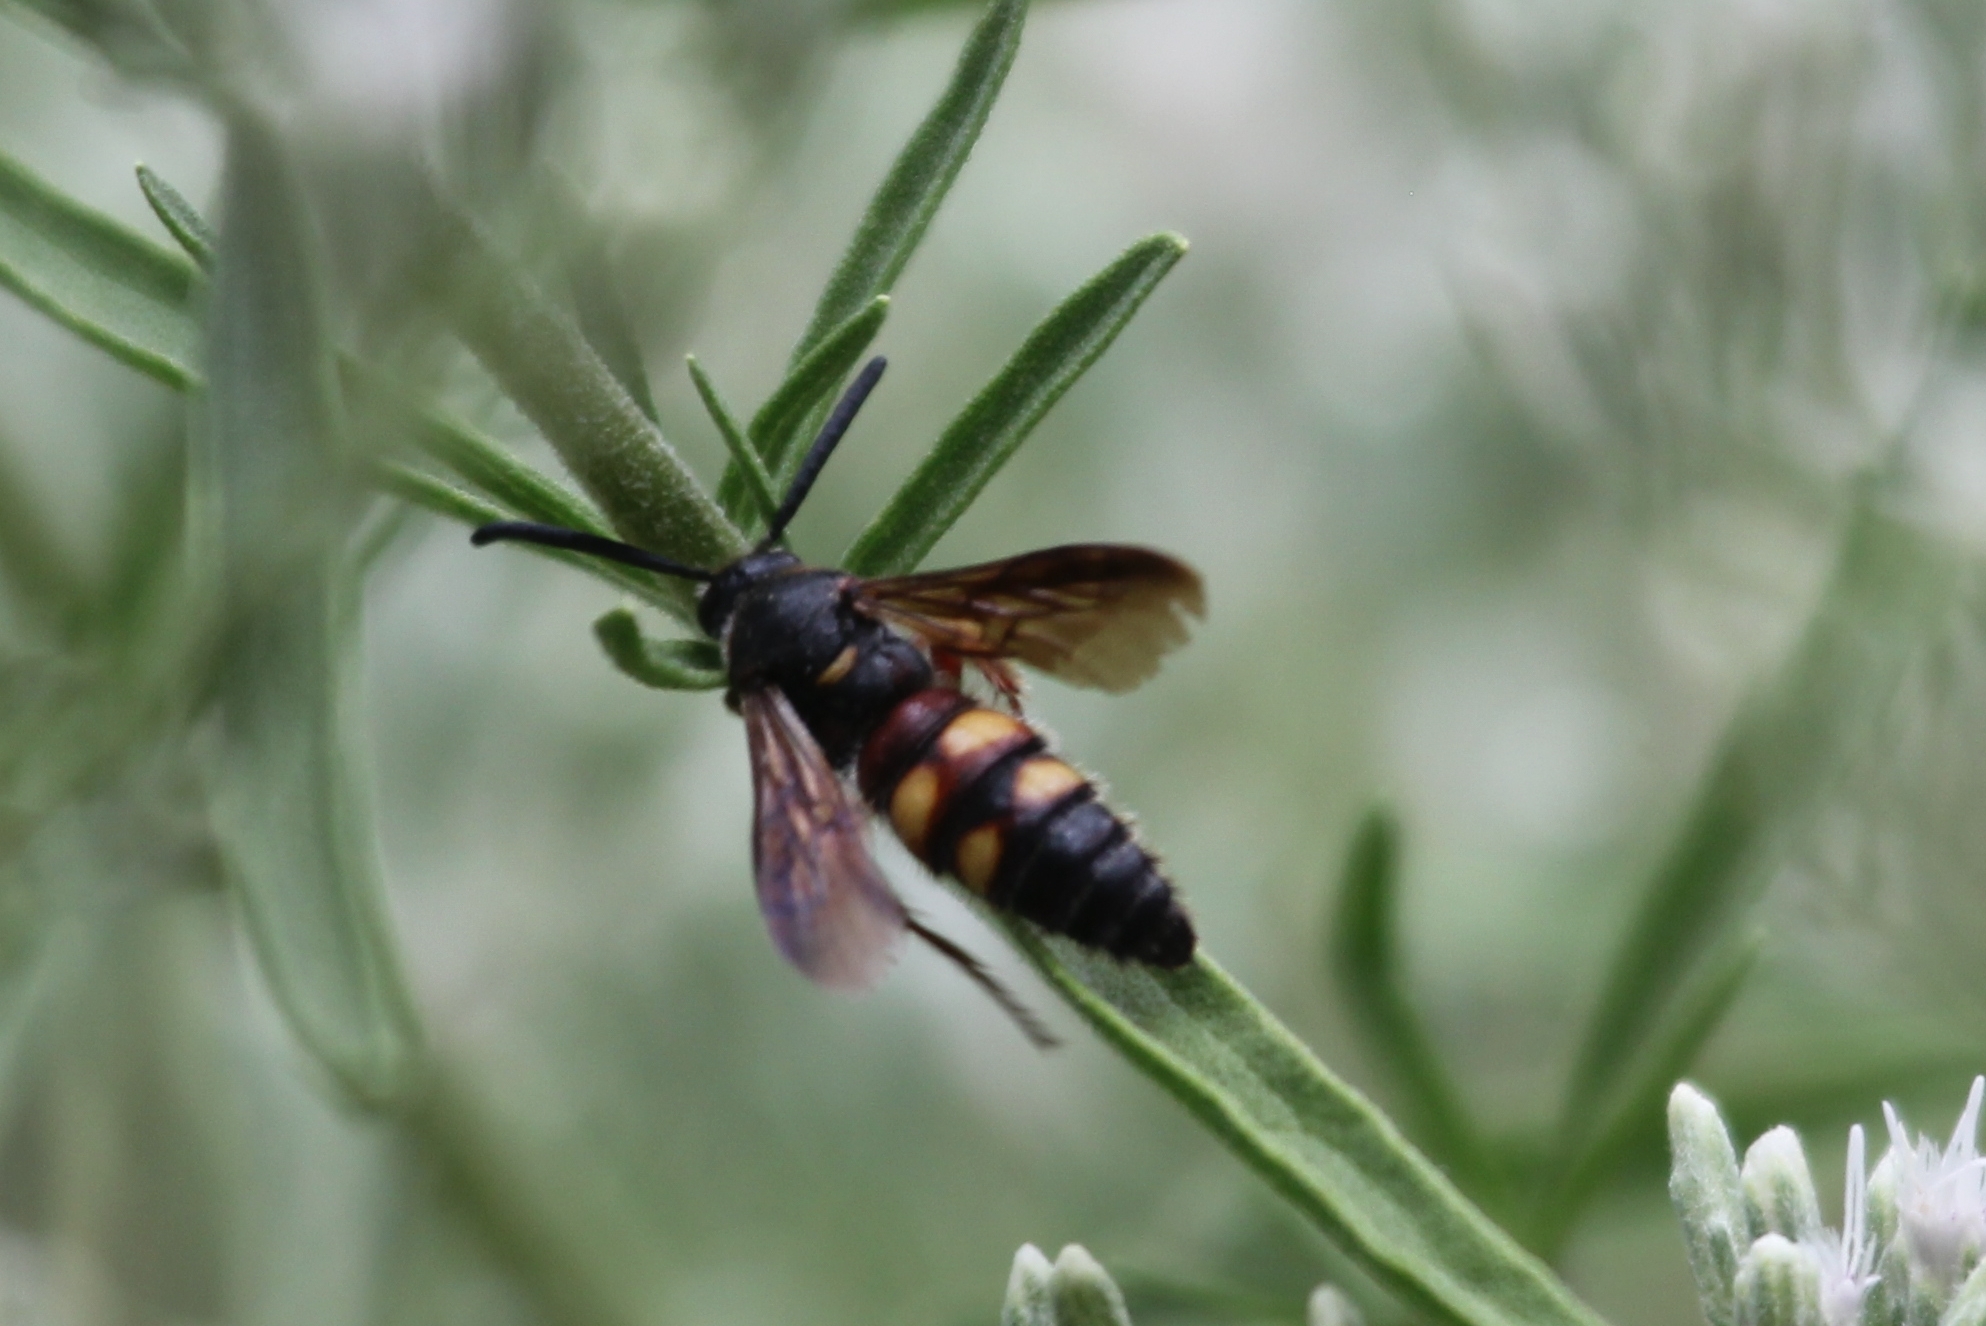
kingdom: Animalia
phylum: Arthropoda
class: Insecta
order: Hymenoptera
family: Scoliidae
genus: Scolia
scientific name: Scolia nobilitata
